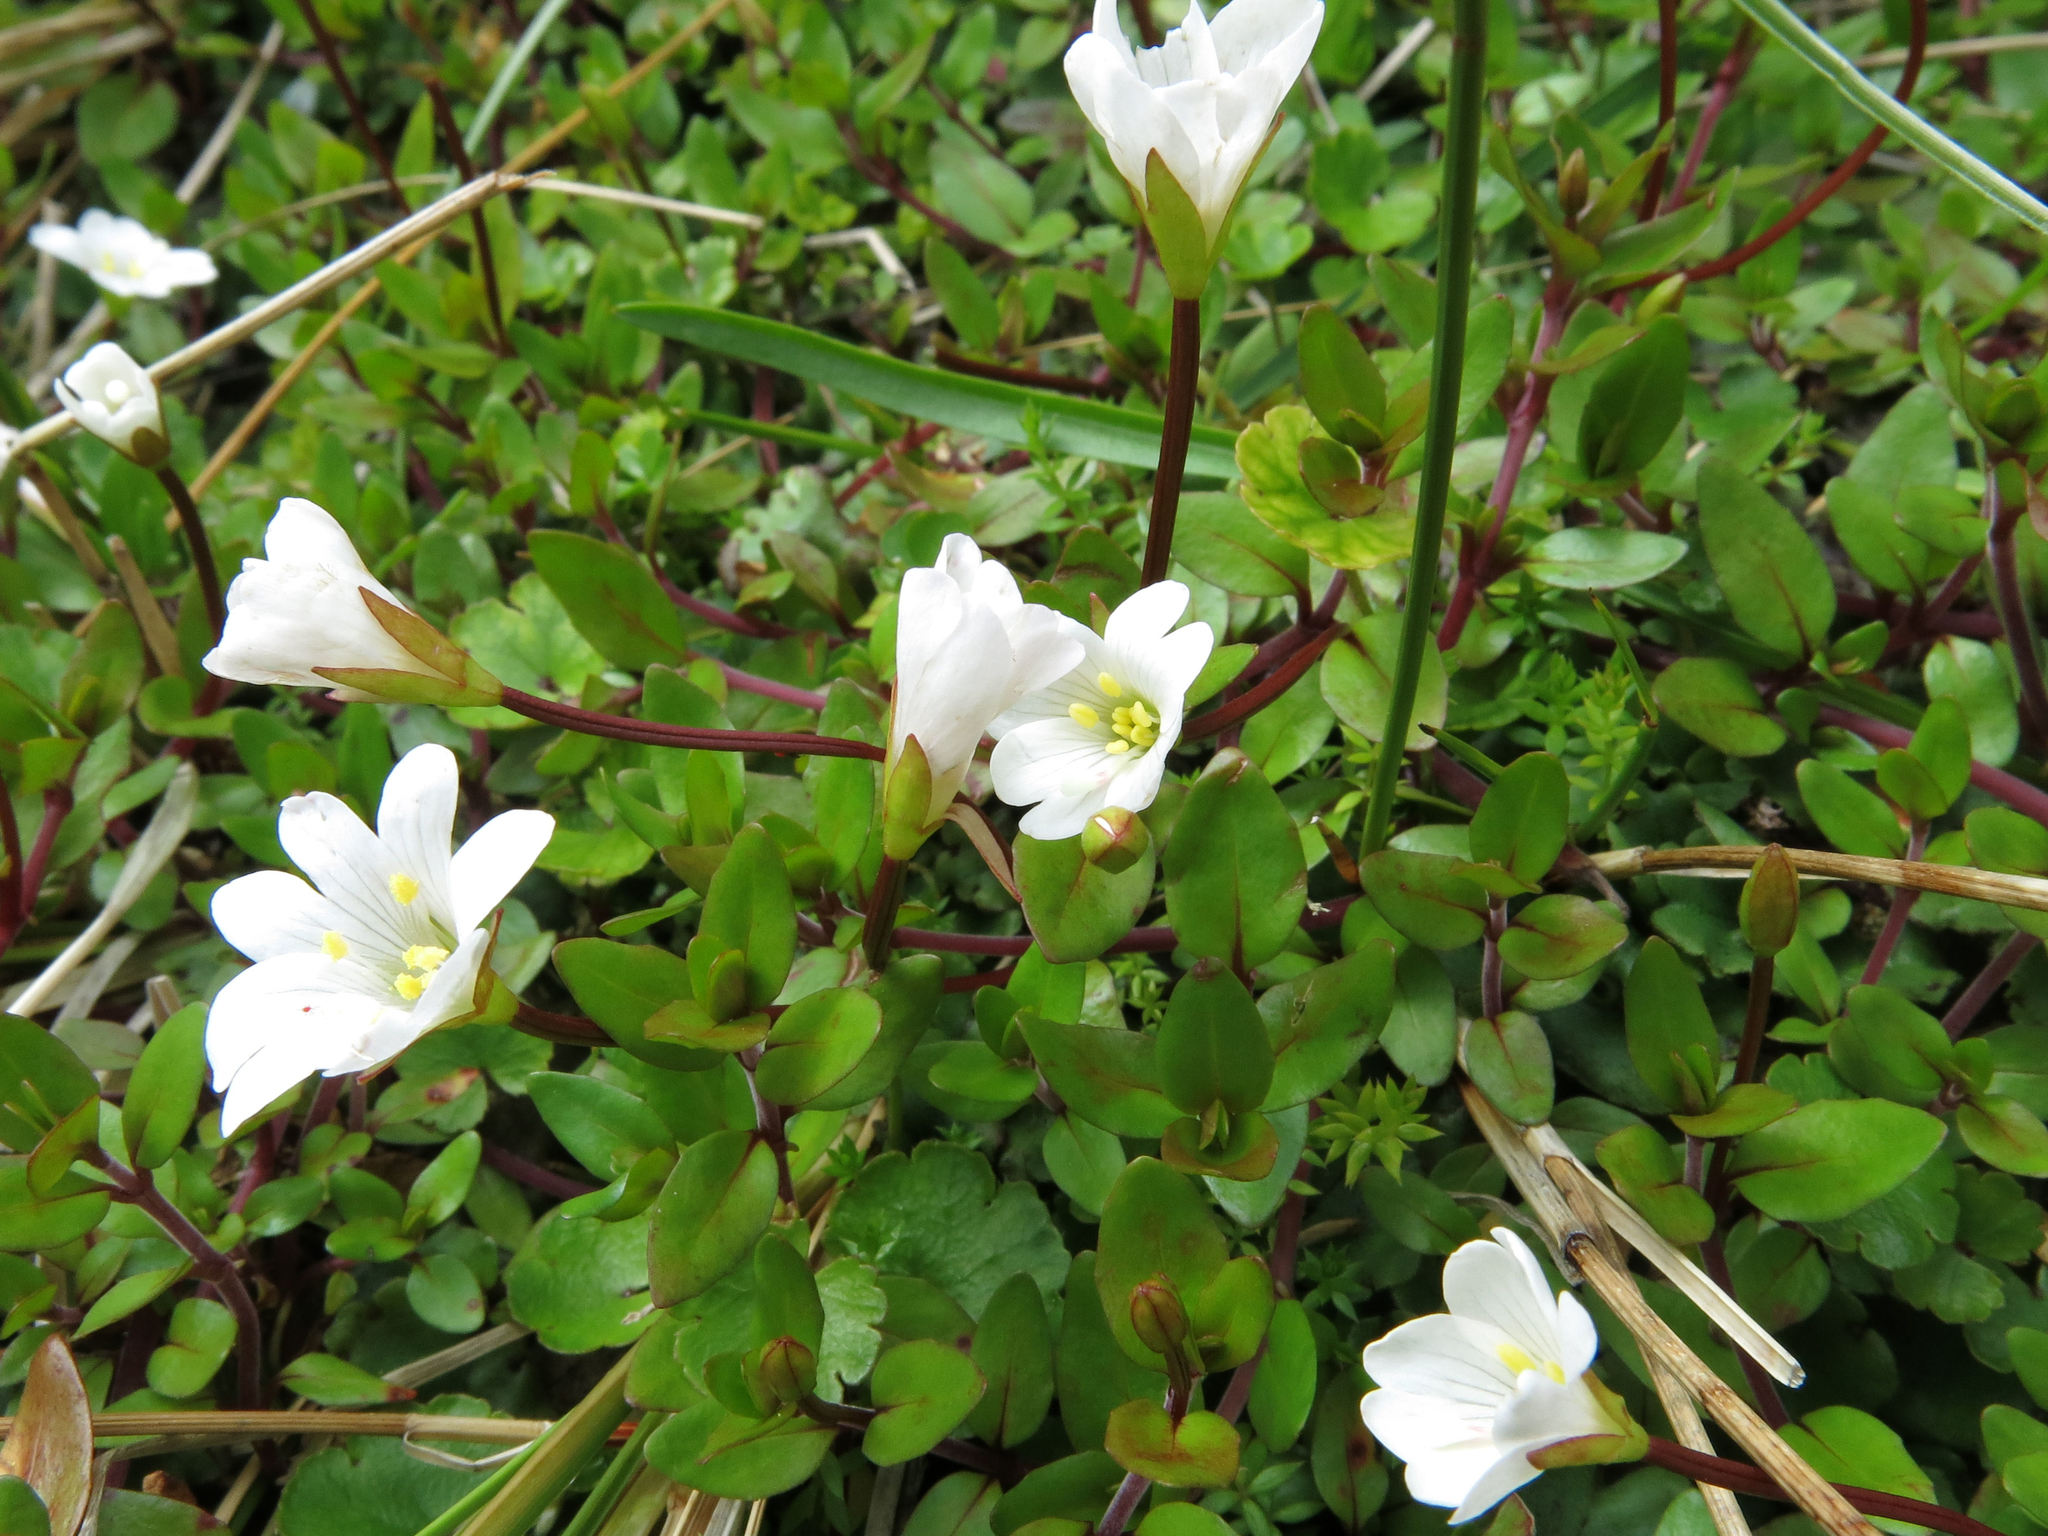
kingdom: Plantae
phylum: Tracheophyta
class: Magnoliopsida
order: Myrtales
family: Onagraceae
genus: Epilobium
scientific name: Epilobium macropus
